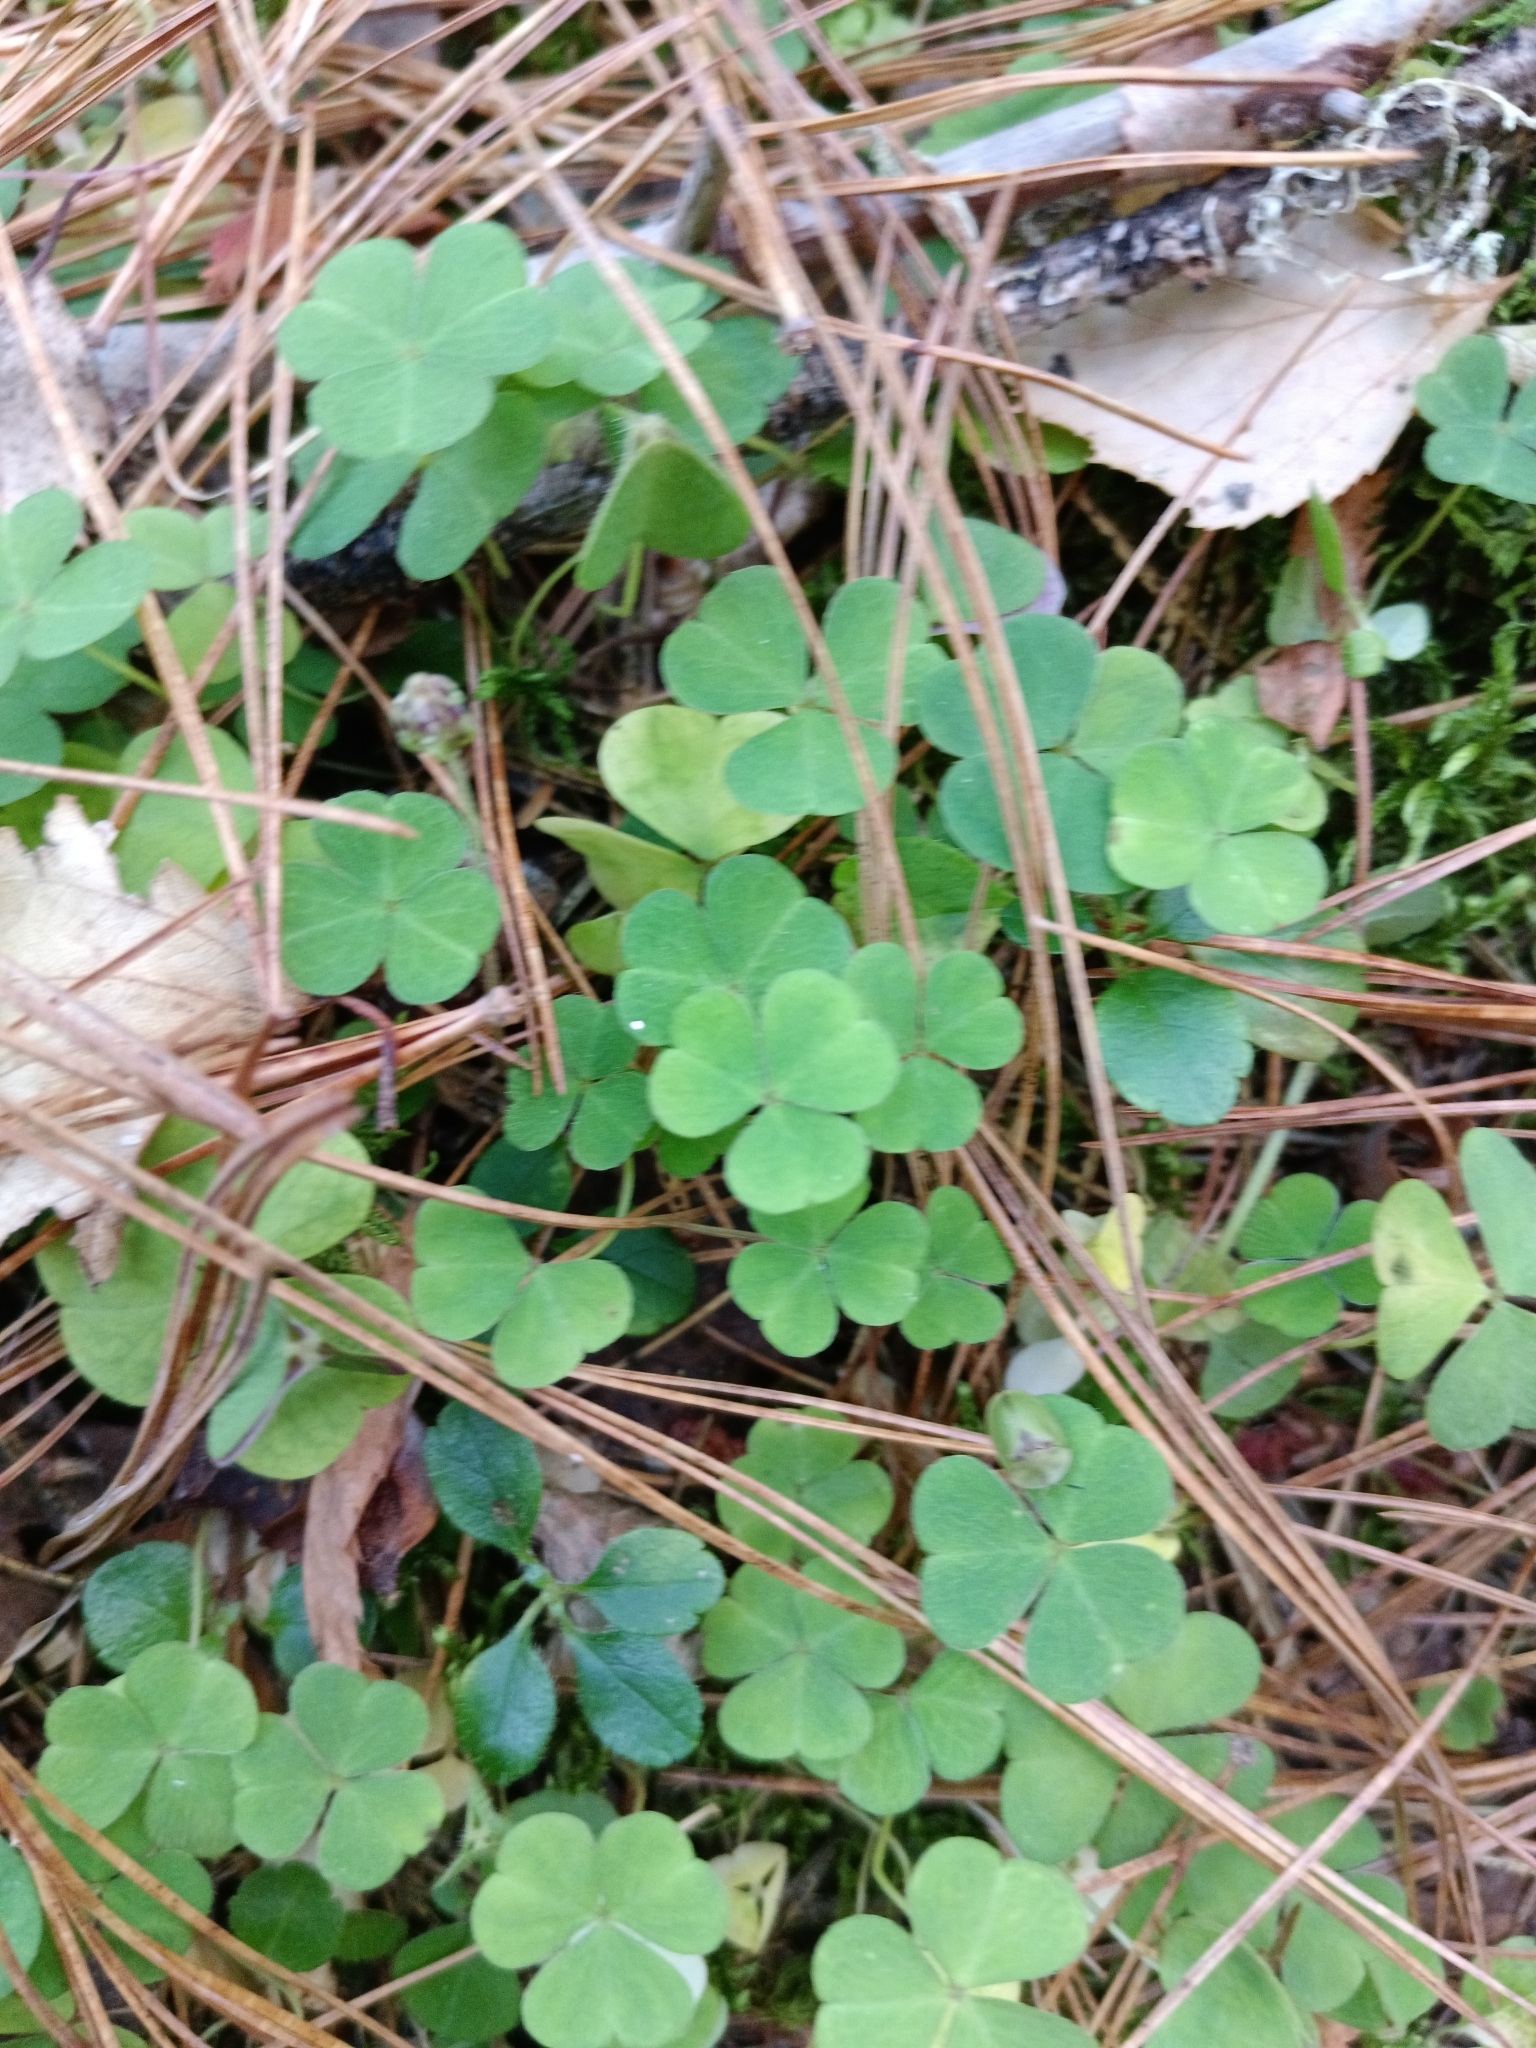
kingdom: Plantae
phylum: Tracheophyta
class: Magnoliopsida
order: Oxalidales
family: Oxalidaceae
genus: Oxalis
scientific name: Oxalis acetosella
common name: Wood-sorrel
